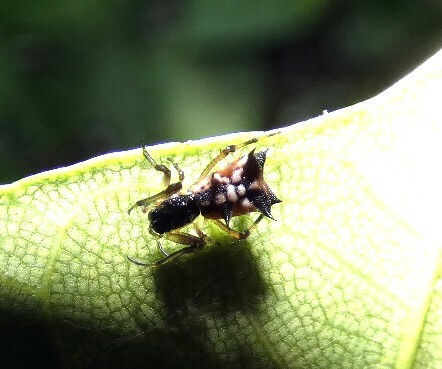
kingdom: Animalia
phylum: Arthropoda
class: Arachnida
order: Araneae
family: Araneidae
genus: Micrathena
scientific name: Micrathena picta
